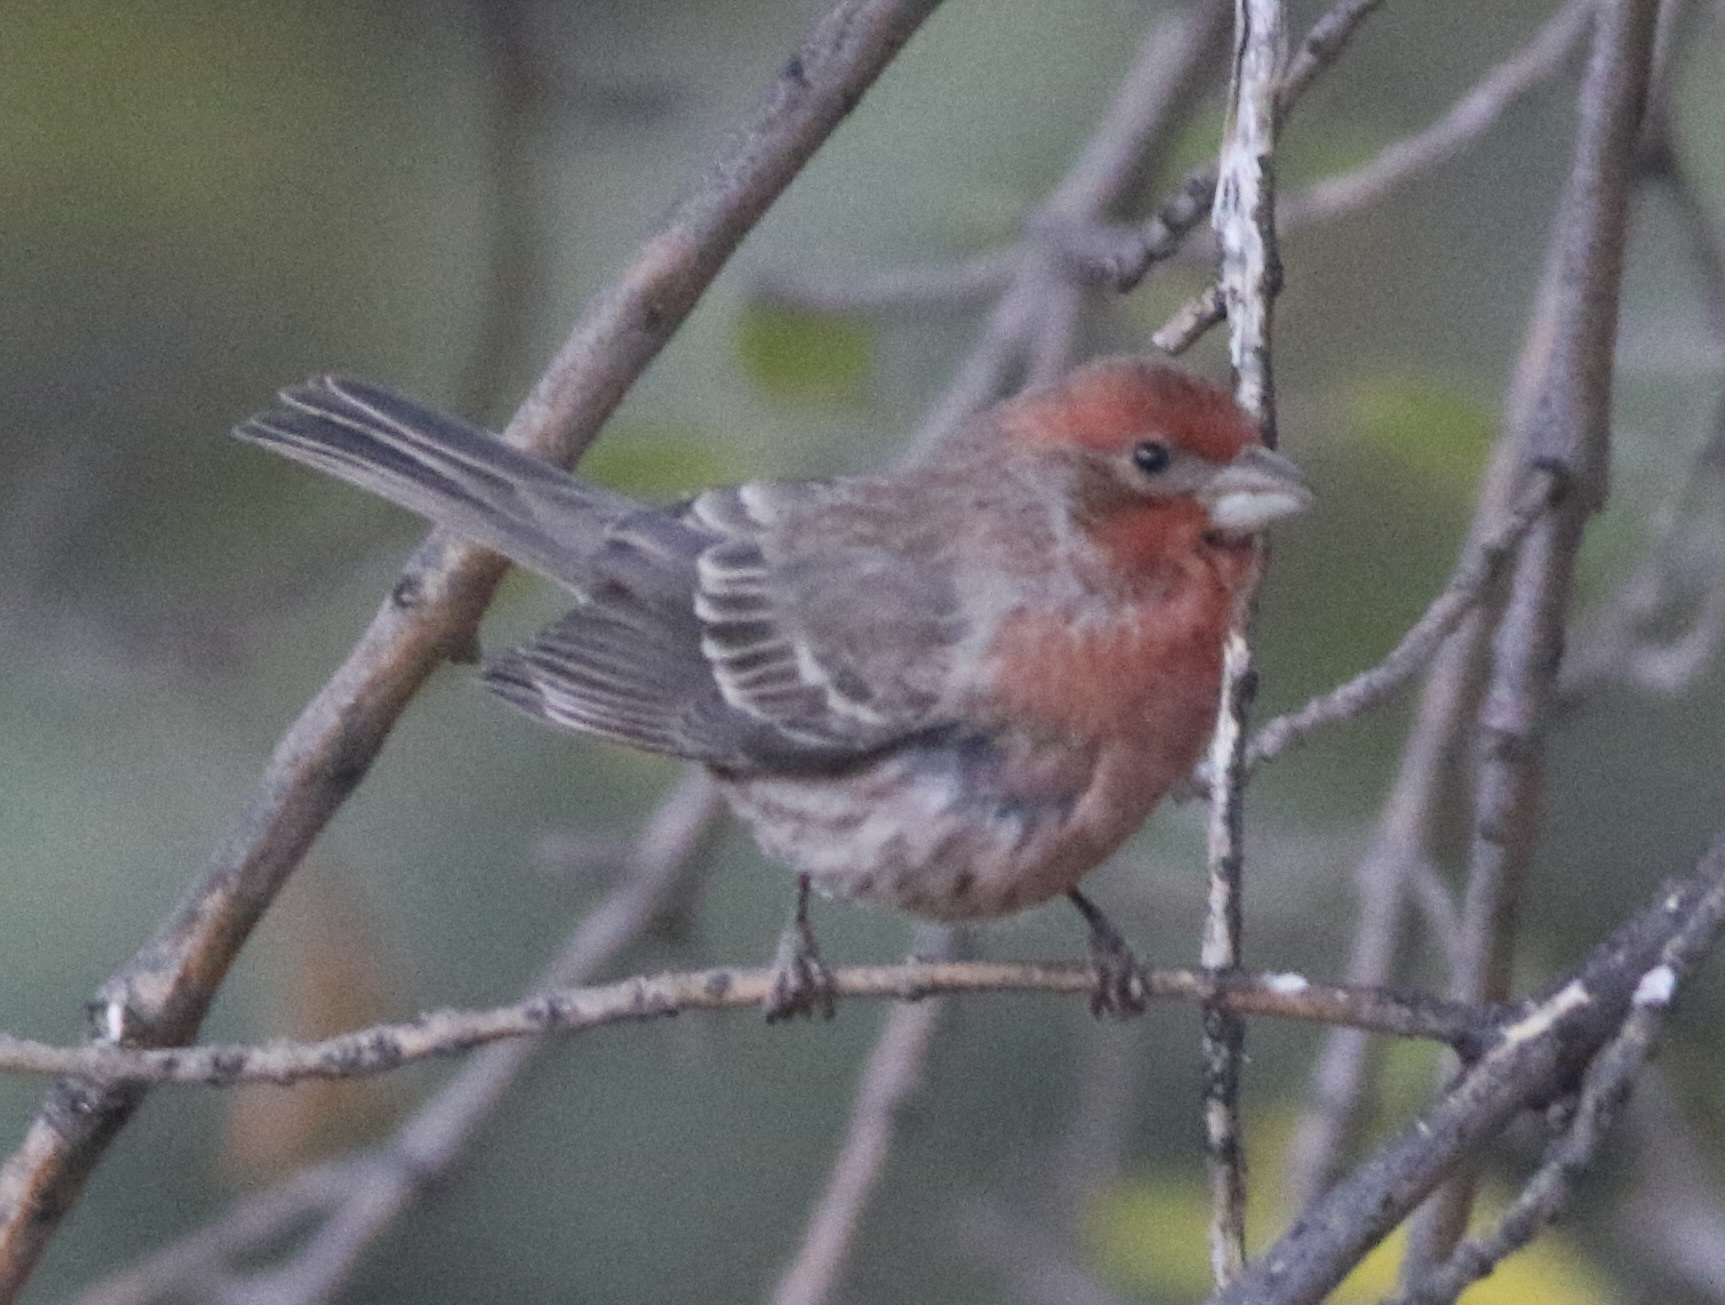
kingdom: Animalia
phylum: Chordata
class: Aves
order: Passeriformes
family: Fringillidae
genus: Haemorhous
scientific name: Haemorhous mexicanus
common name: House finch
